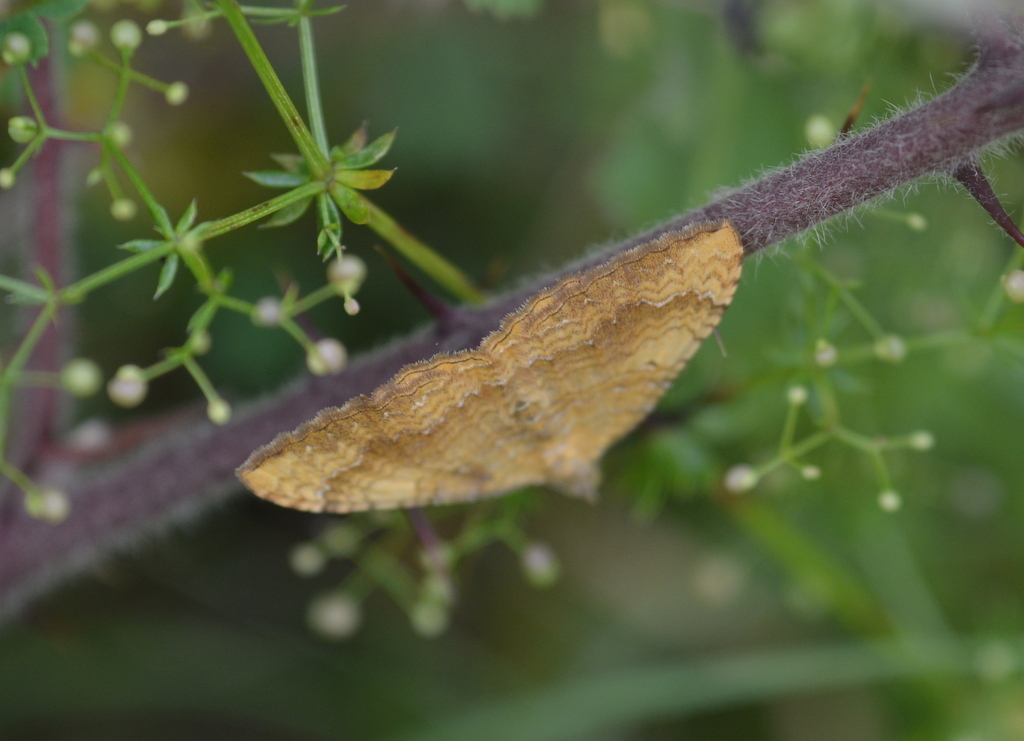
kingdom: Animalia
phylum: Arthropoda
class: Insecta
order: Lepidoptera
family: Geometridae
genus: Camptogramma
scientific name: Camptogramma bilineata
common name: Yellow shell
